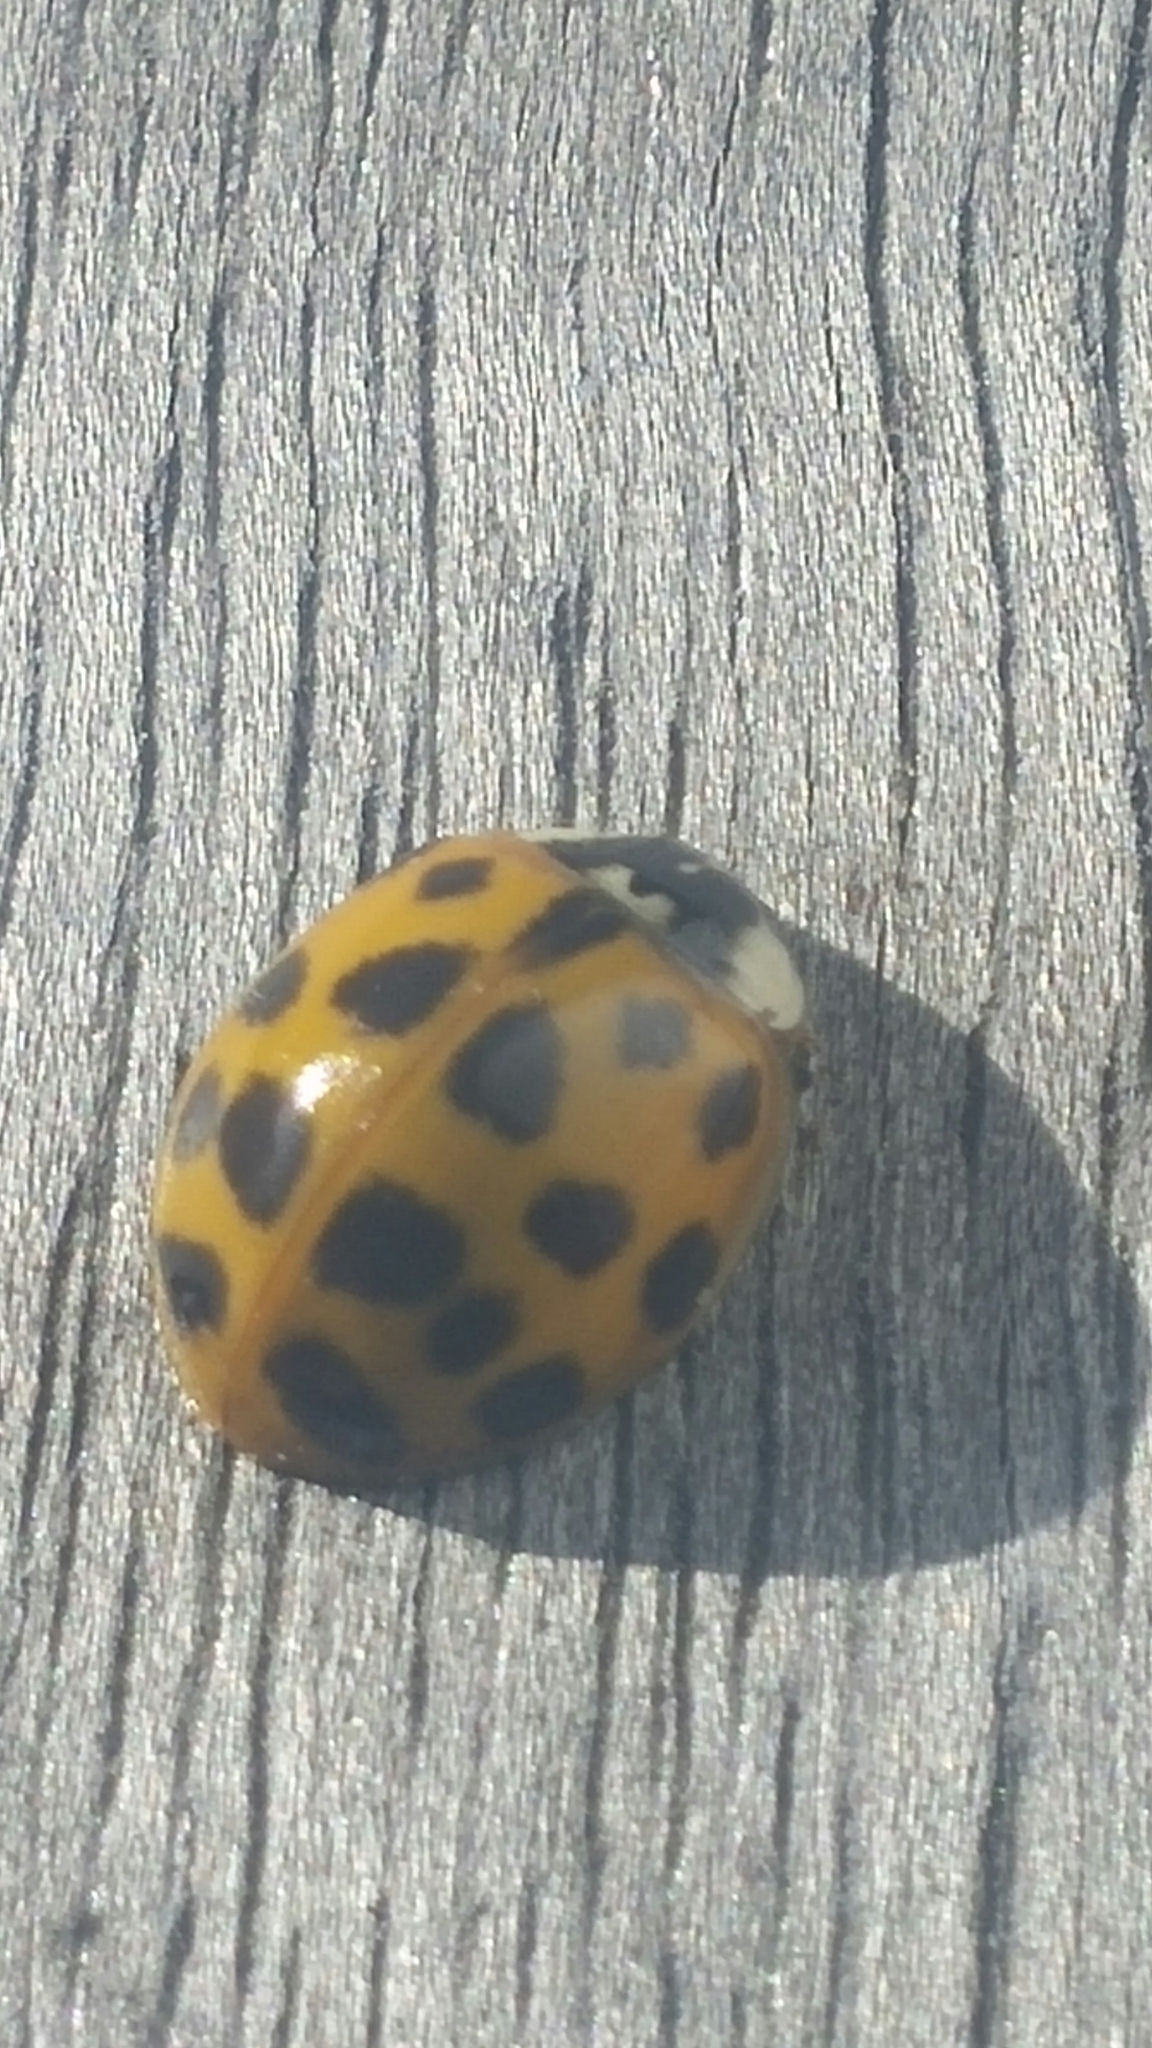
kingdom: Animalia
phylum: Arthropoda
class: Insecta
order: Coleoptera
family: Coccinellidae
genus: Harmonia
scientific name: Harmonia axyridis
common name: Harlequin ladybird
